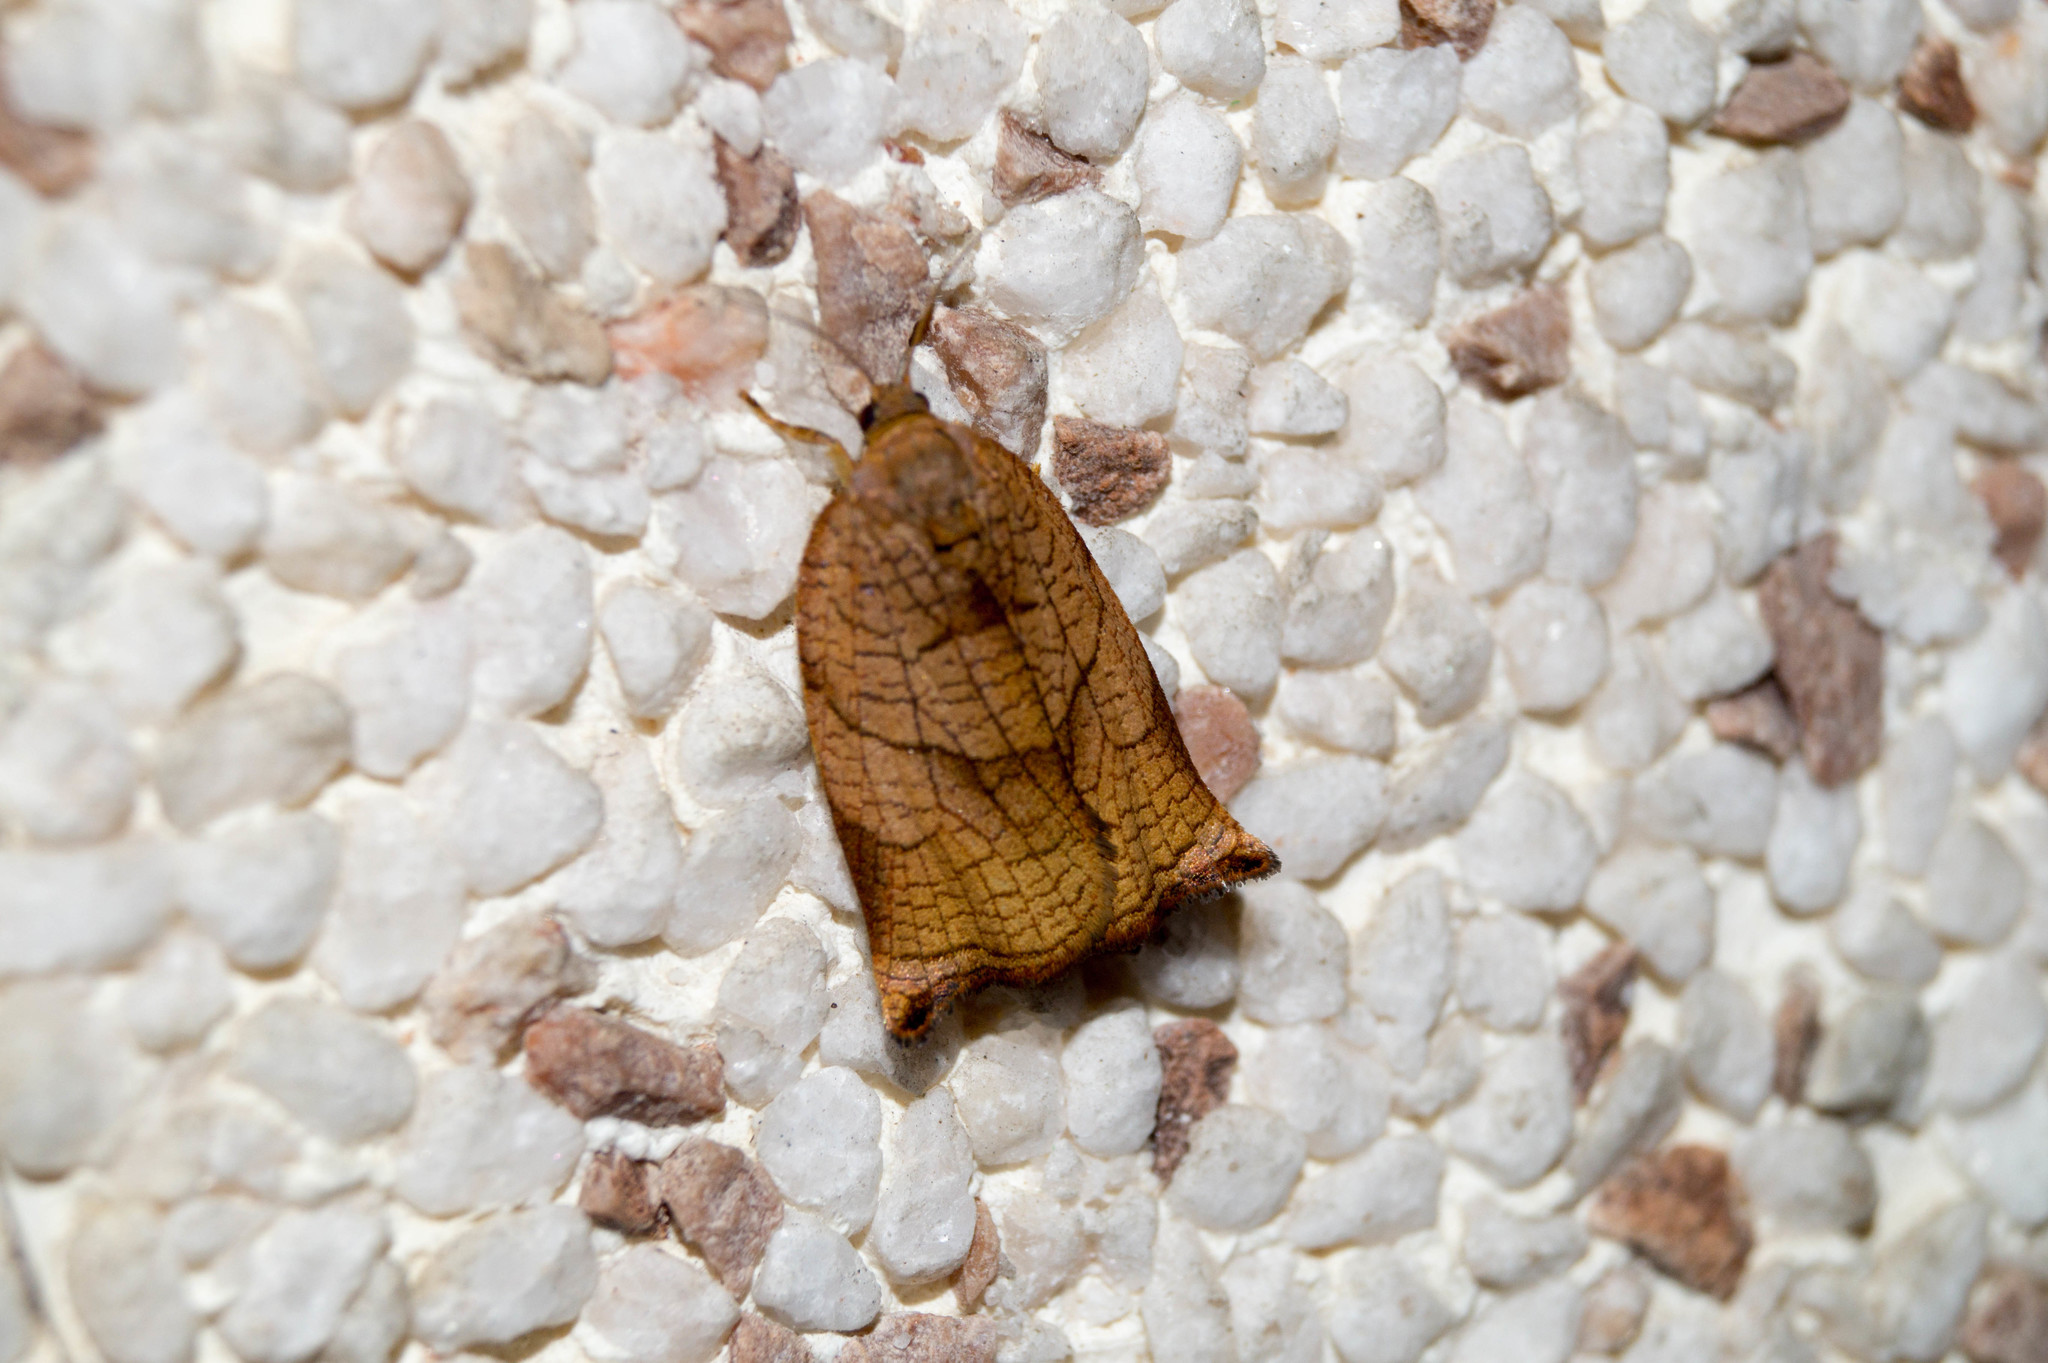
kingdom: Animalia
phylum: Arthropoda
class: Insecta
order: Lepidoptera
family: Tortricidae
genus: Archips
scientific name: Archips podana
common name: Large fruit-tree tortrix
